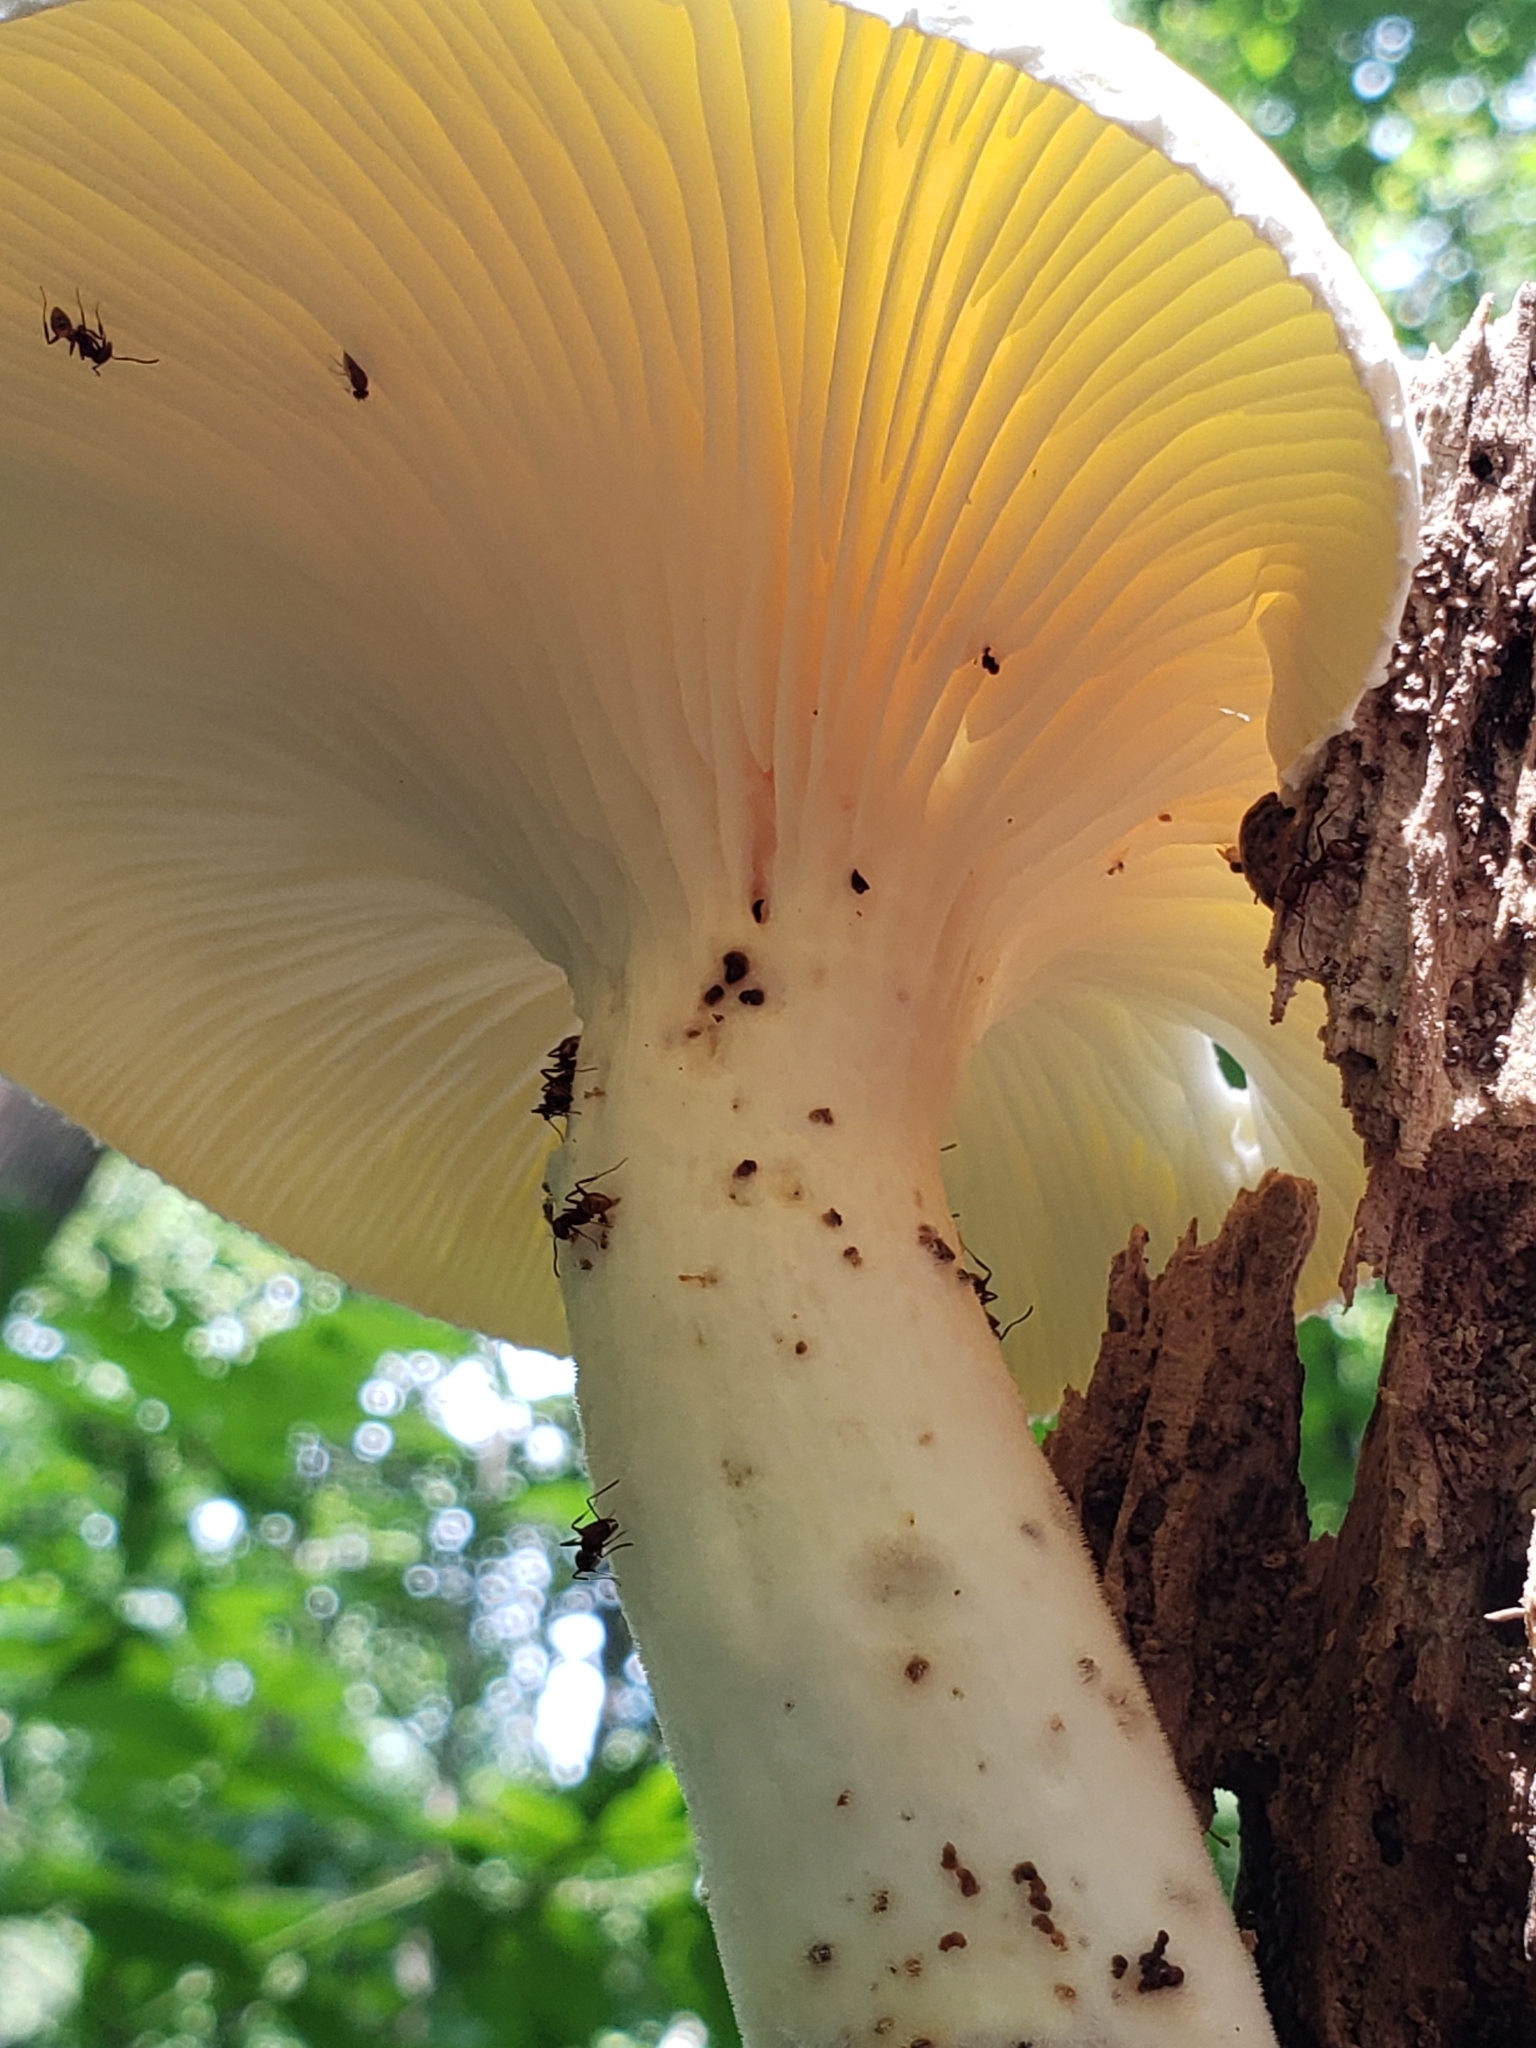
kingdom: Fungi
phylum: Basidiomycota
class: Agaricomycetes
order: Polyporales
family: Polyporaceae
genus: Lentinus
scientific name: Lentinus levis
